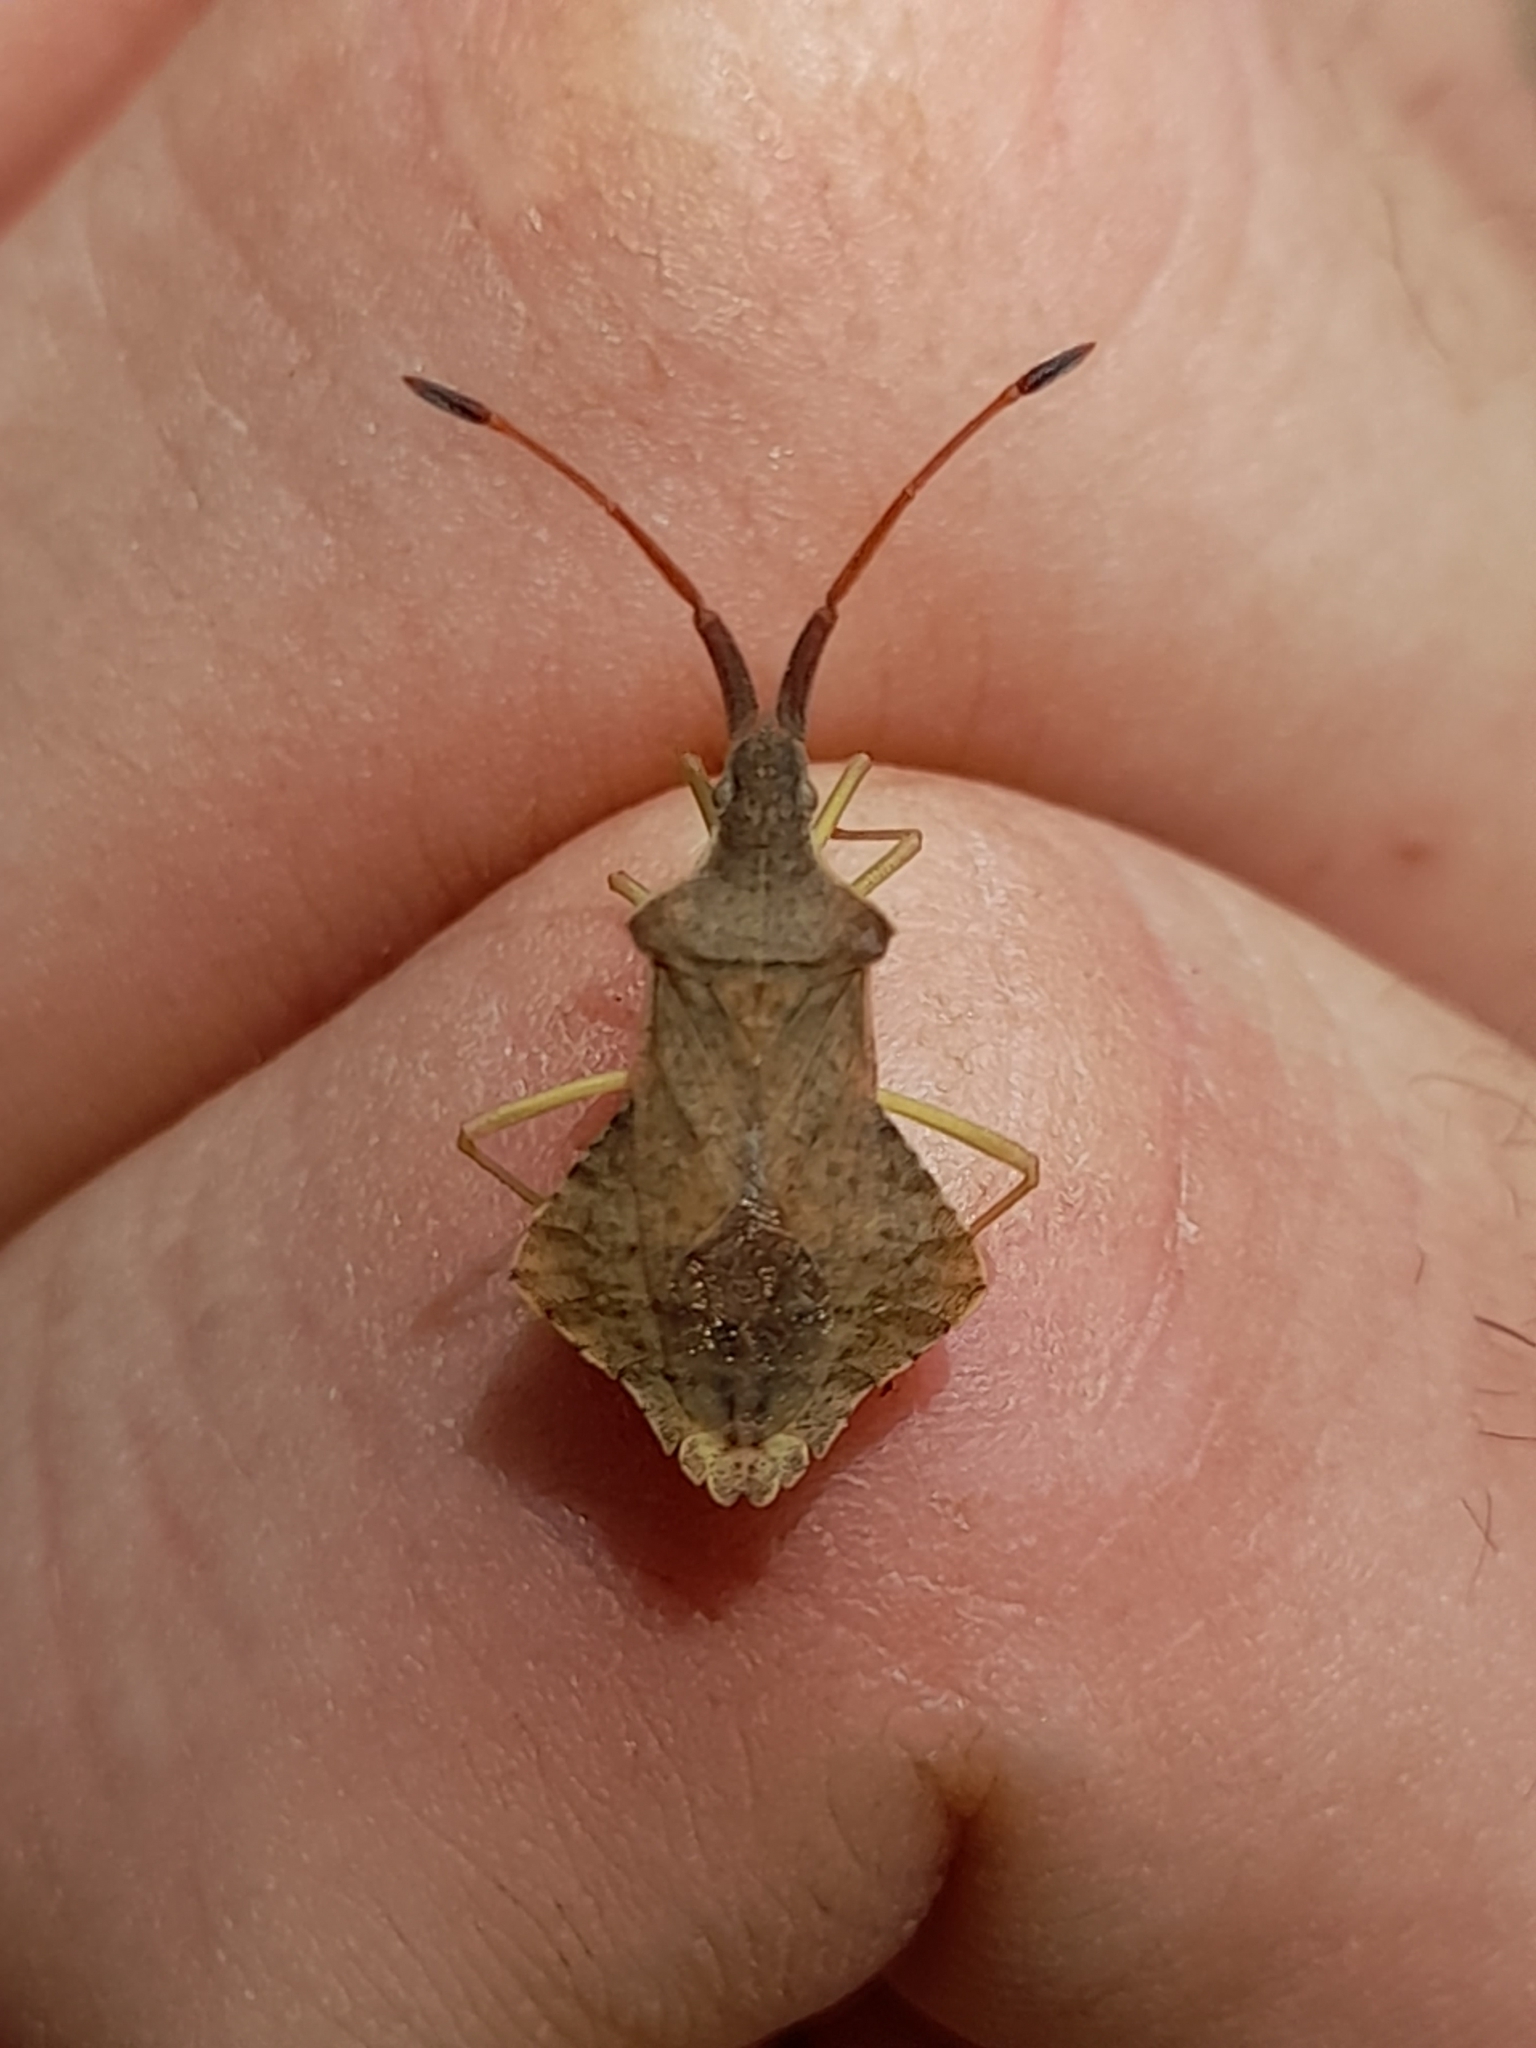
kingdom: Animalia
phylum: Arthropoda
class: Insecta
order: Hemiptera
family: Coreidae
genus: Syromastus
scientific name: Syromastus rhombeus
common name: Rhombic leatherbug
